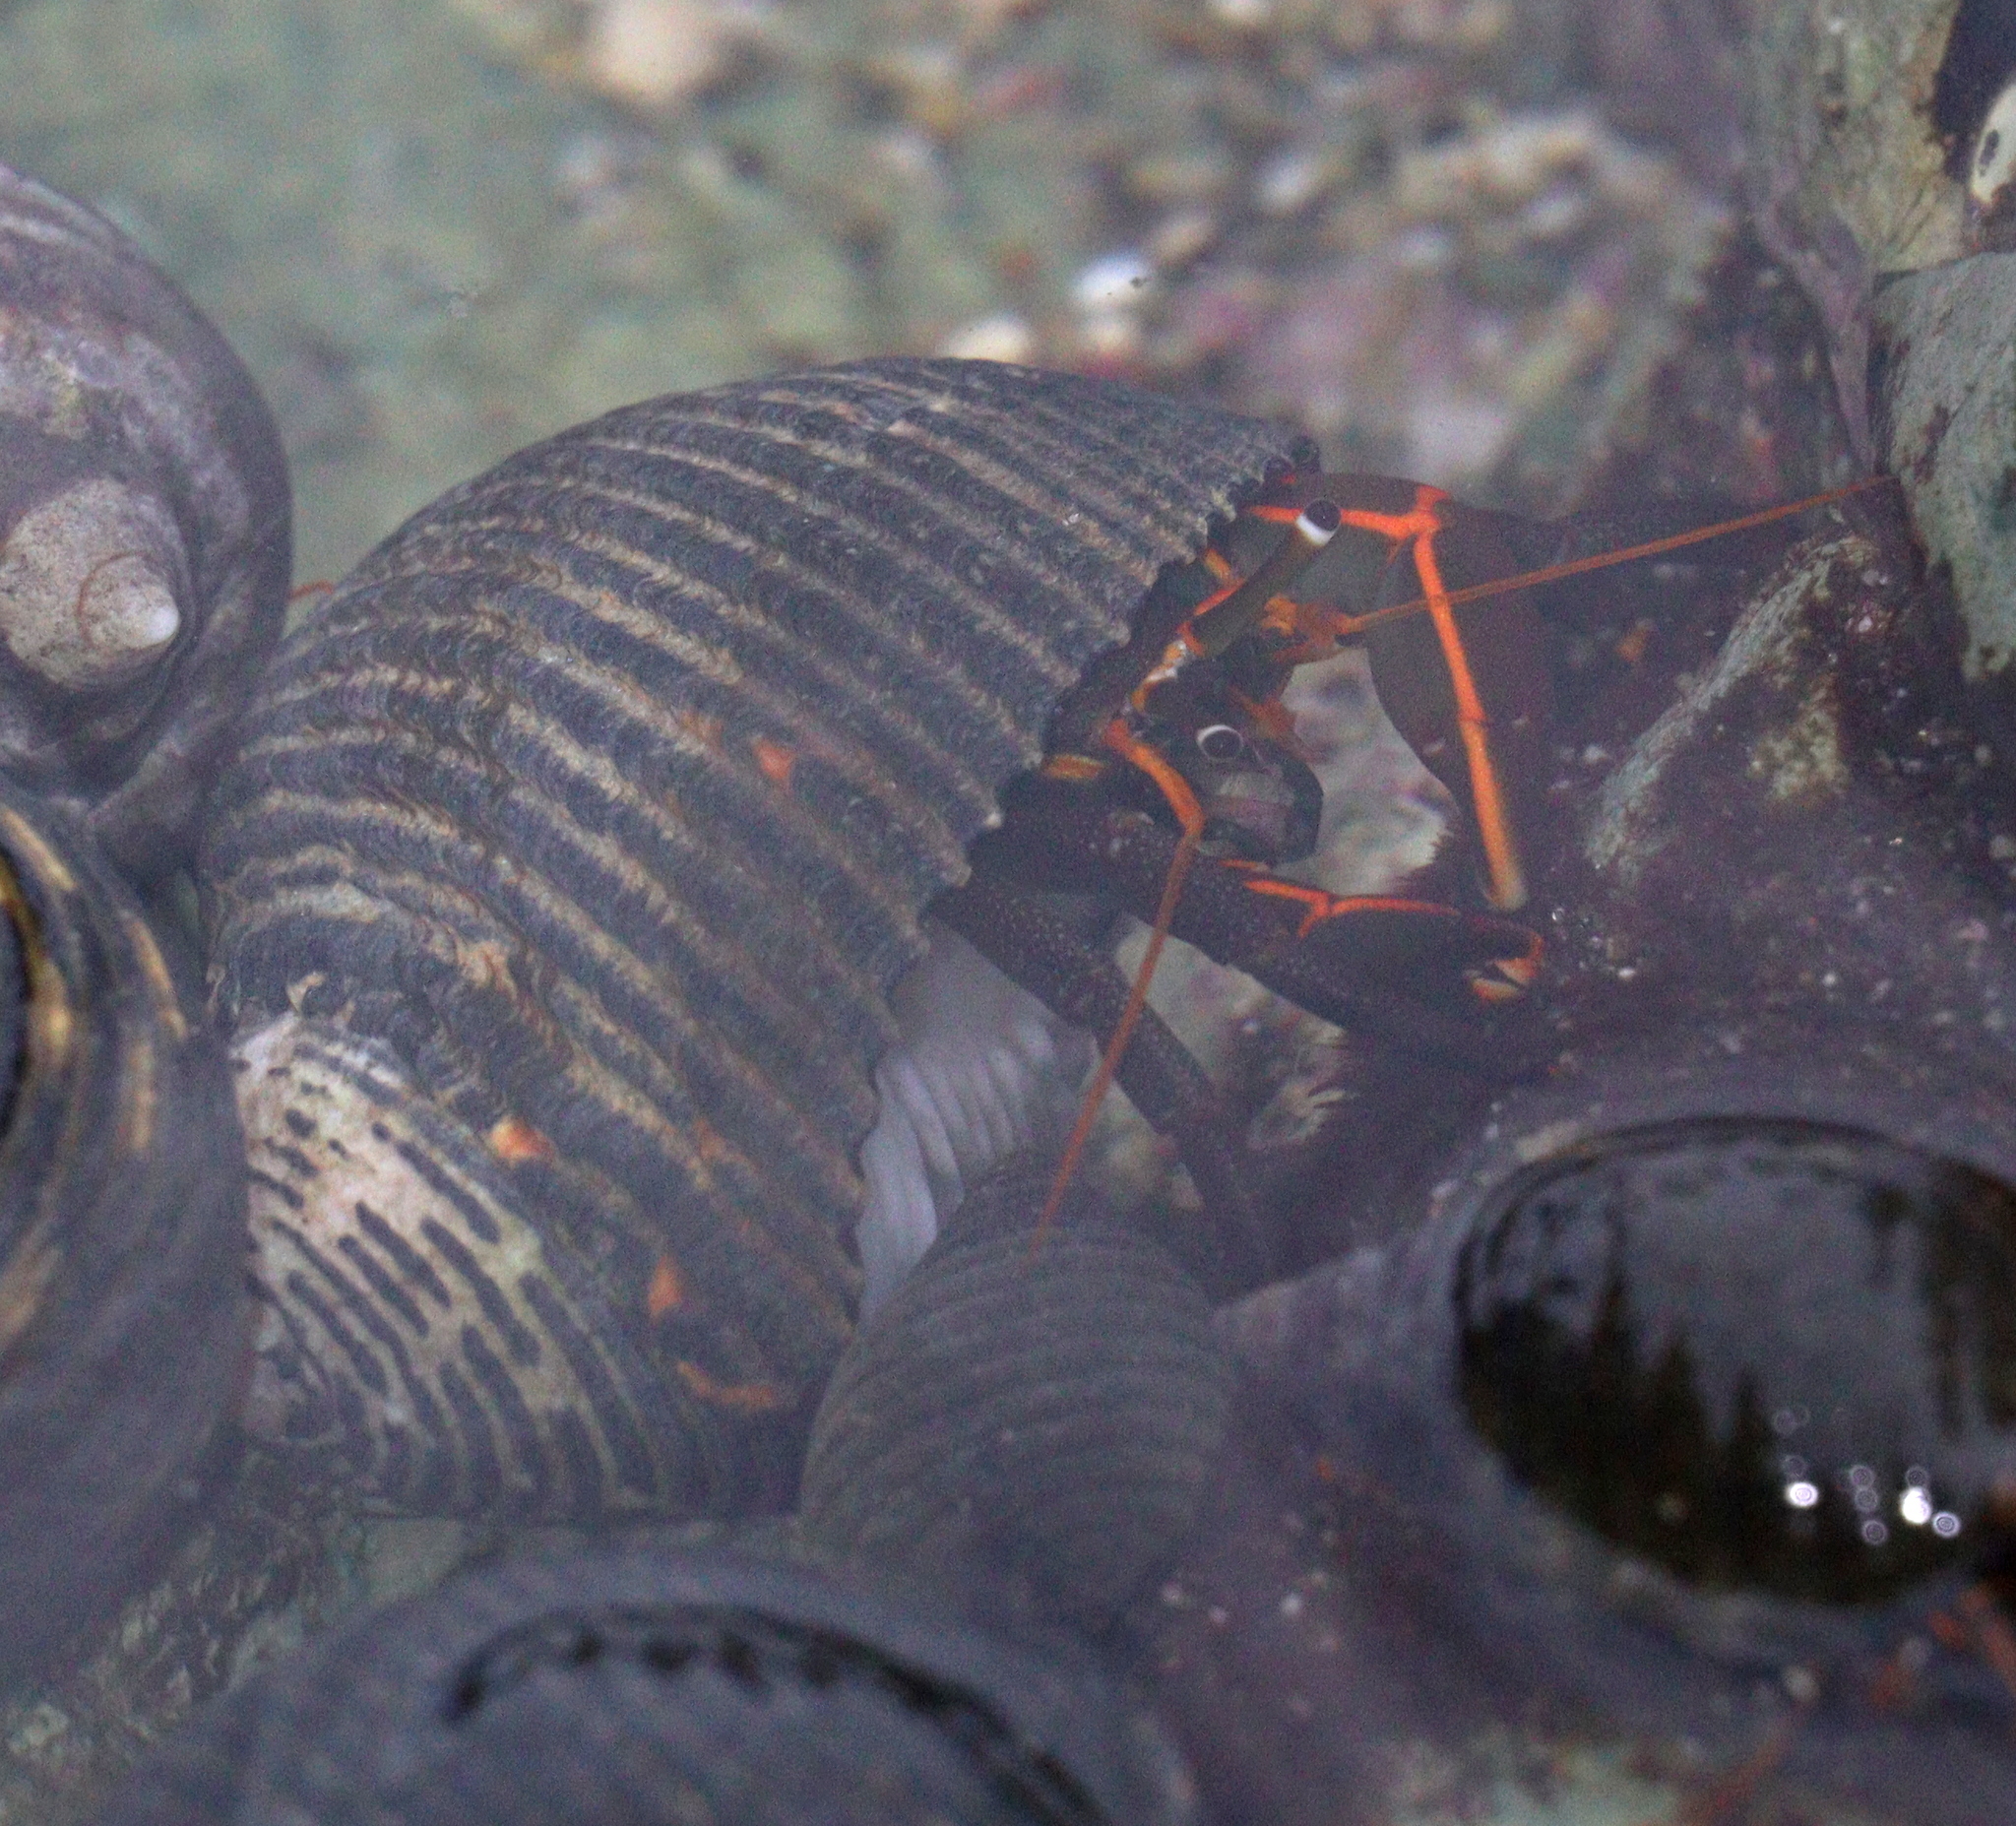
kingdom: Animalia
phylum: Arthropoda
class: Malacostraca
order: Decapoda
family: Diogenidae
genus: Calcinus
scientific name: Calcinus obscurus
